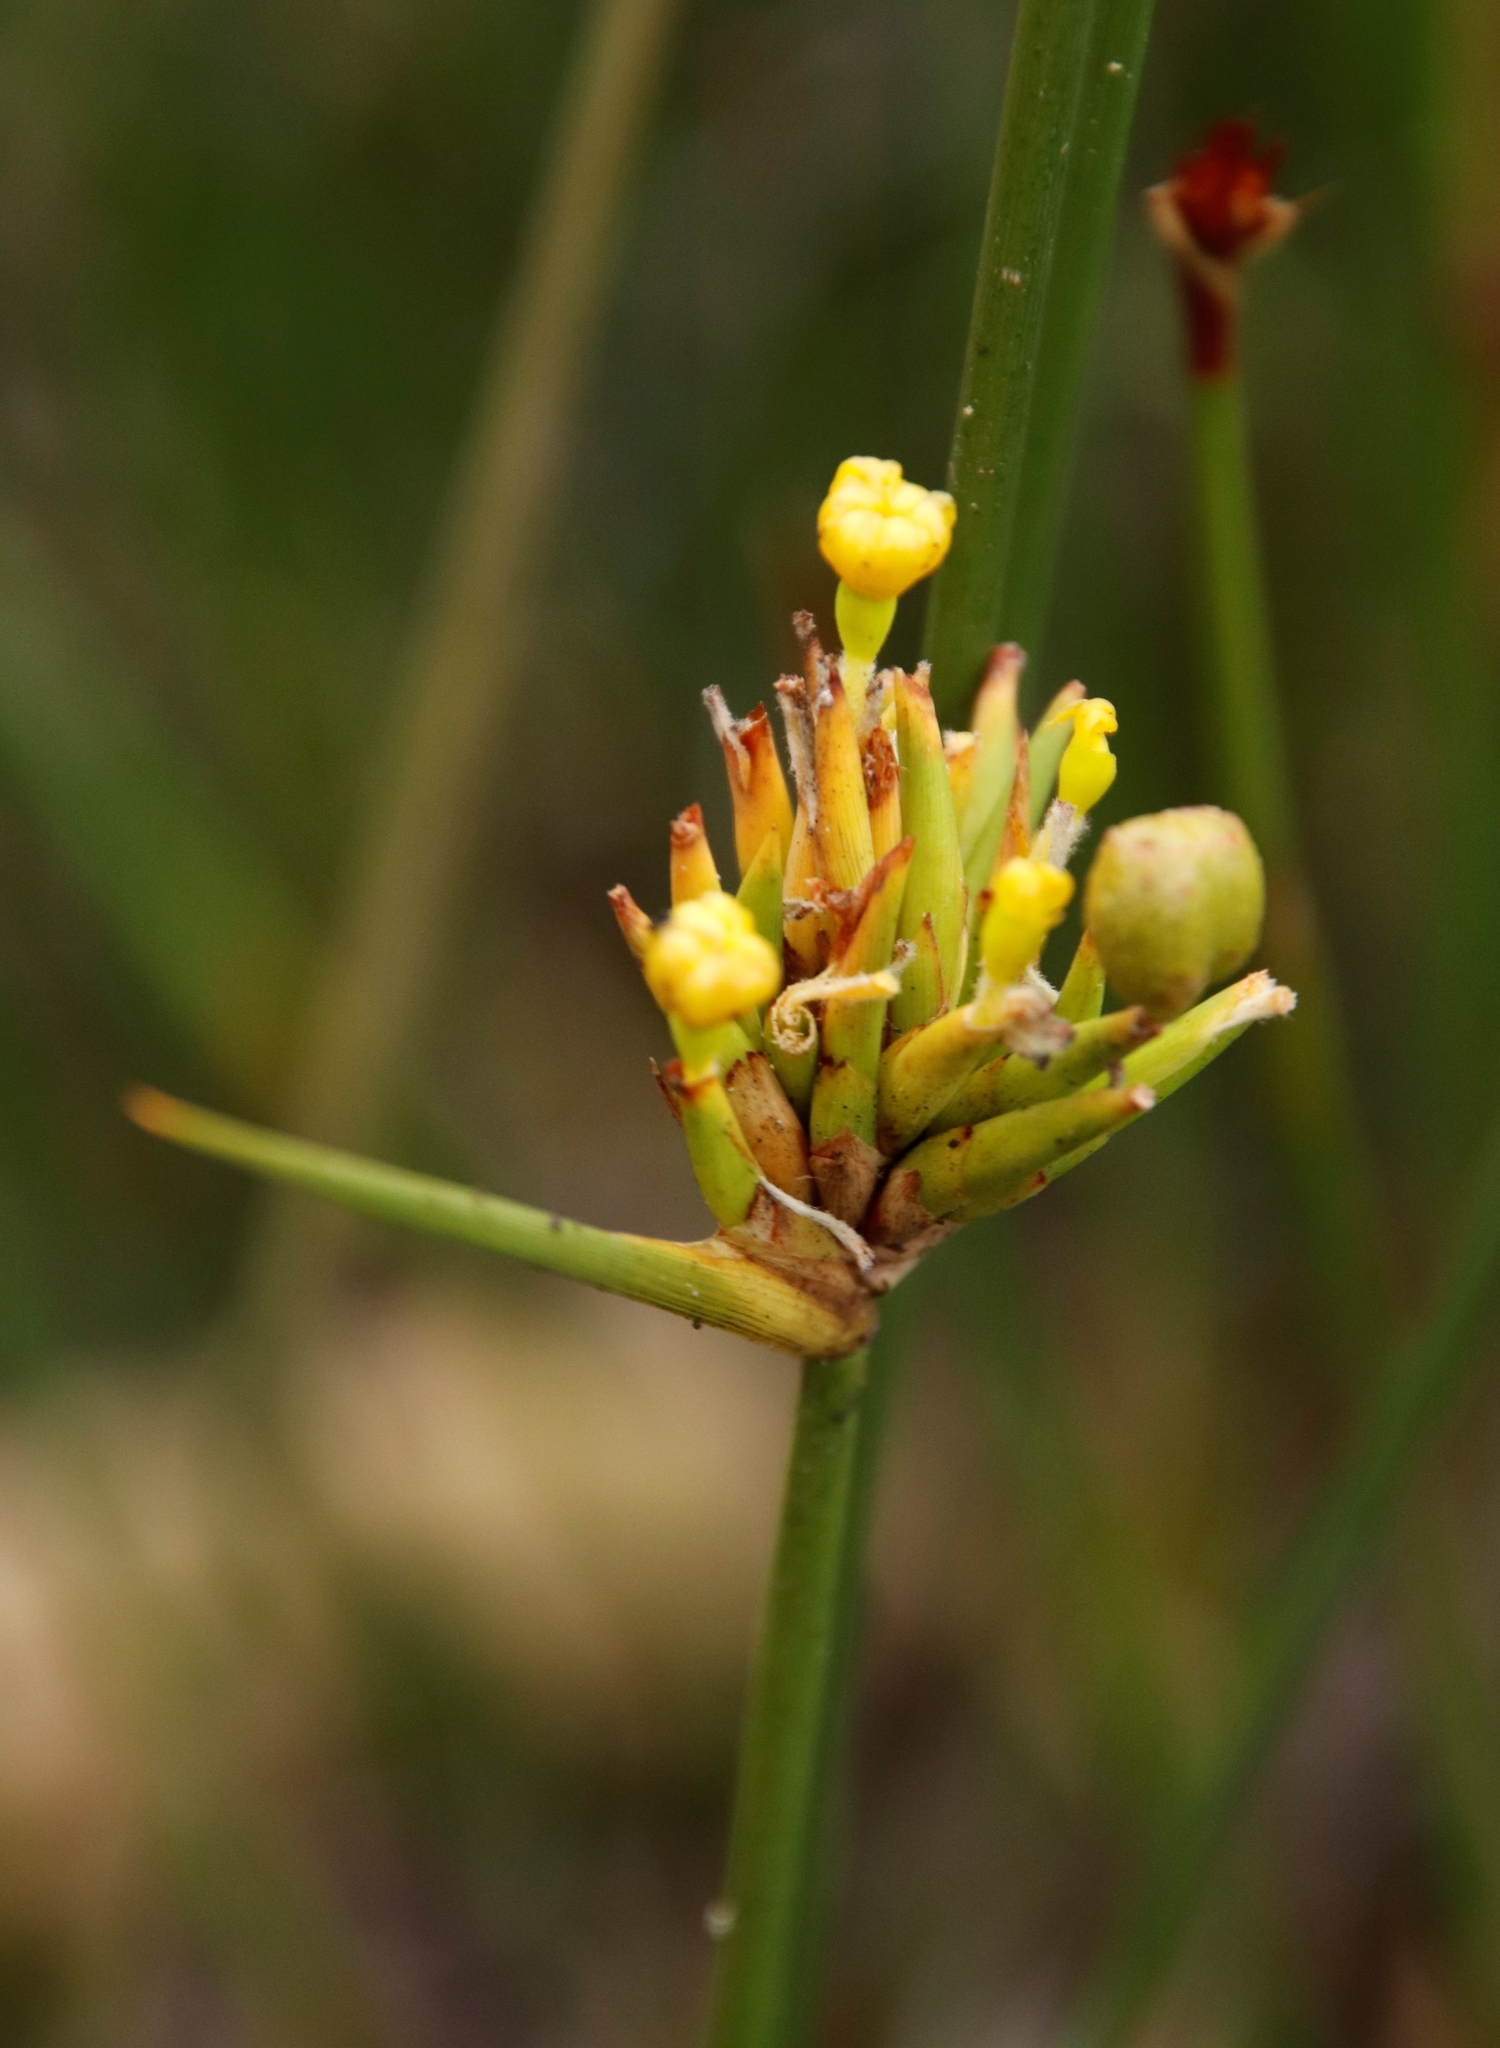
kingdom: Plantae
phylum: Tracheophyta
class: Liliopsida
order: Asparagales
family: Iridaceae
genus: Bobartia
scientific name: Bobartia indica
